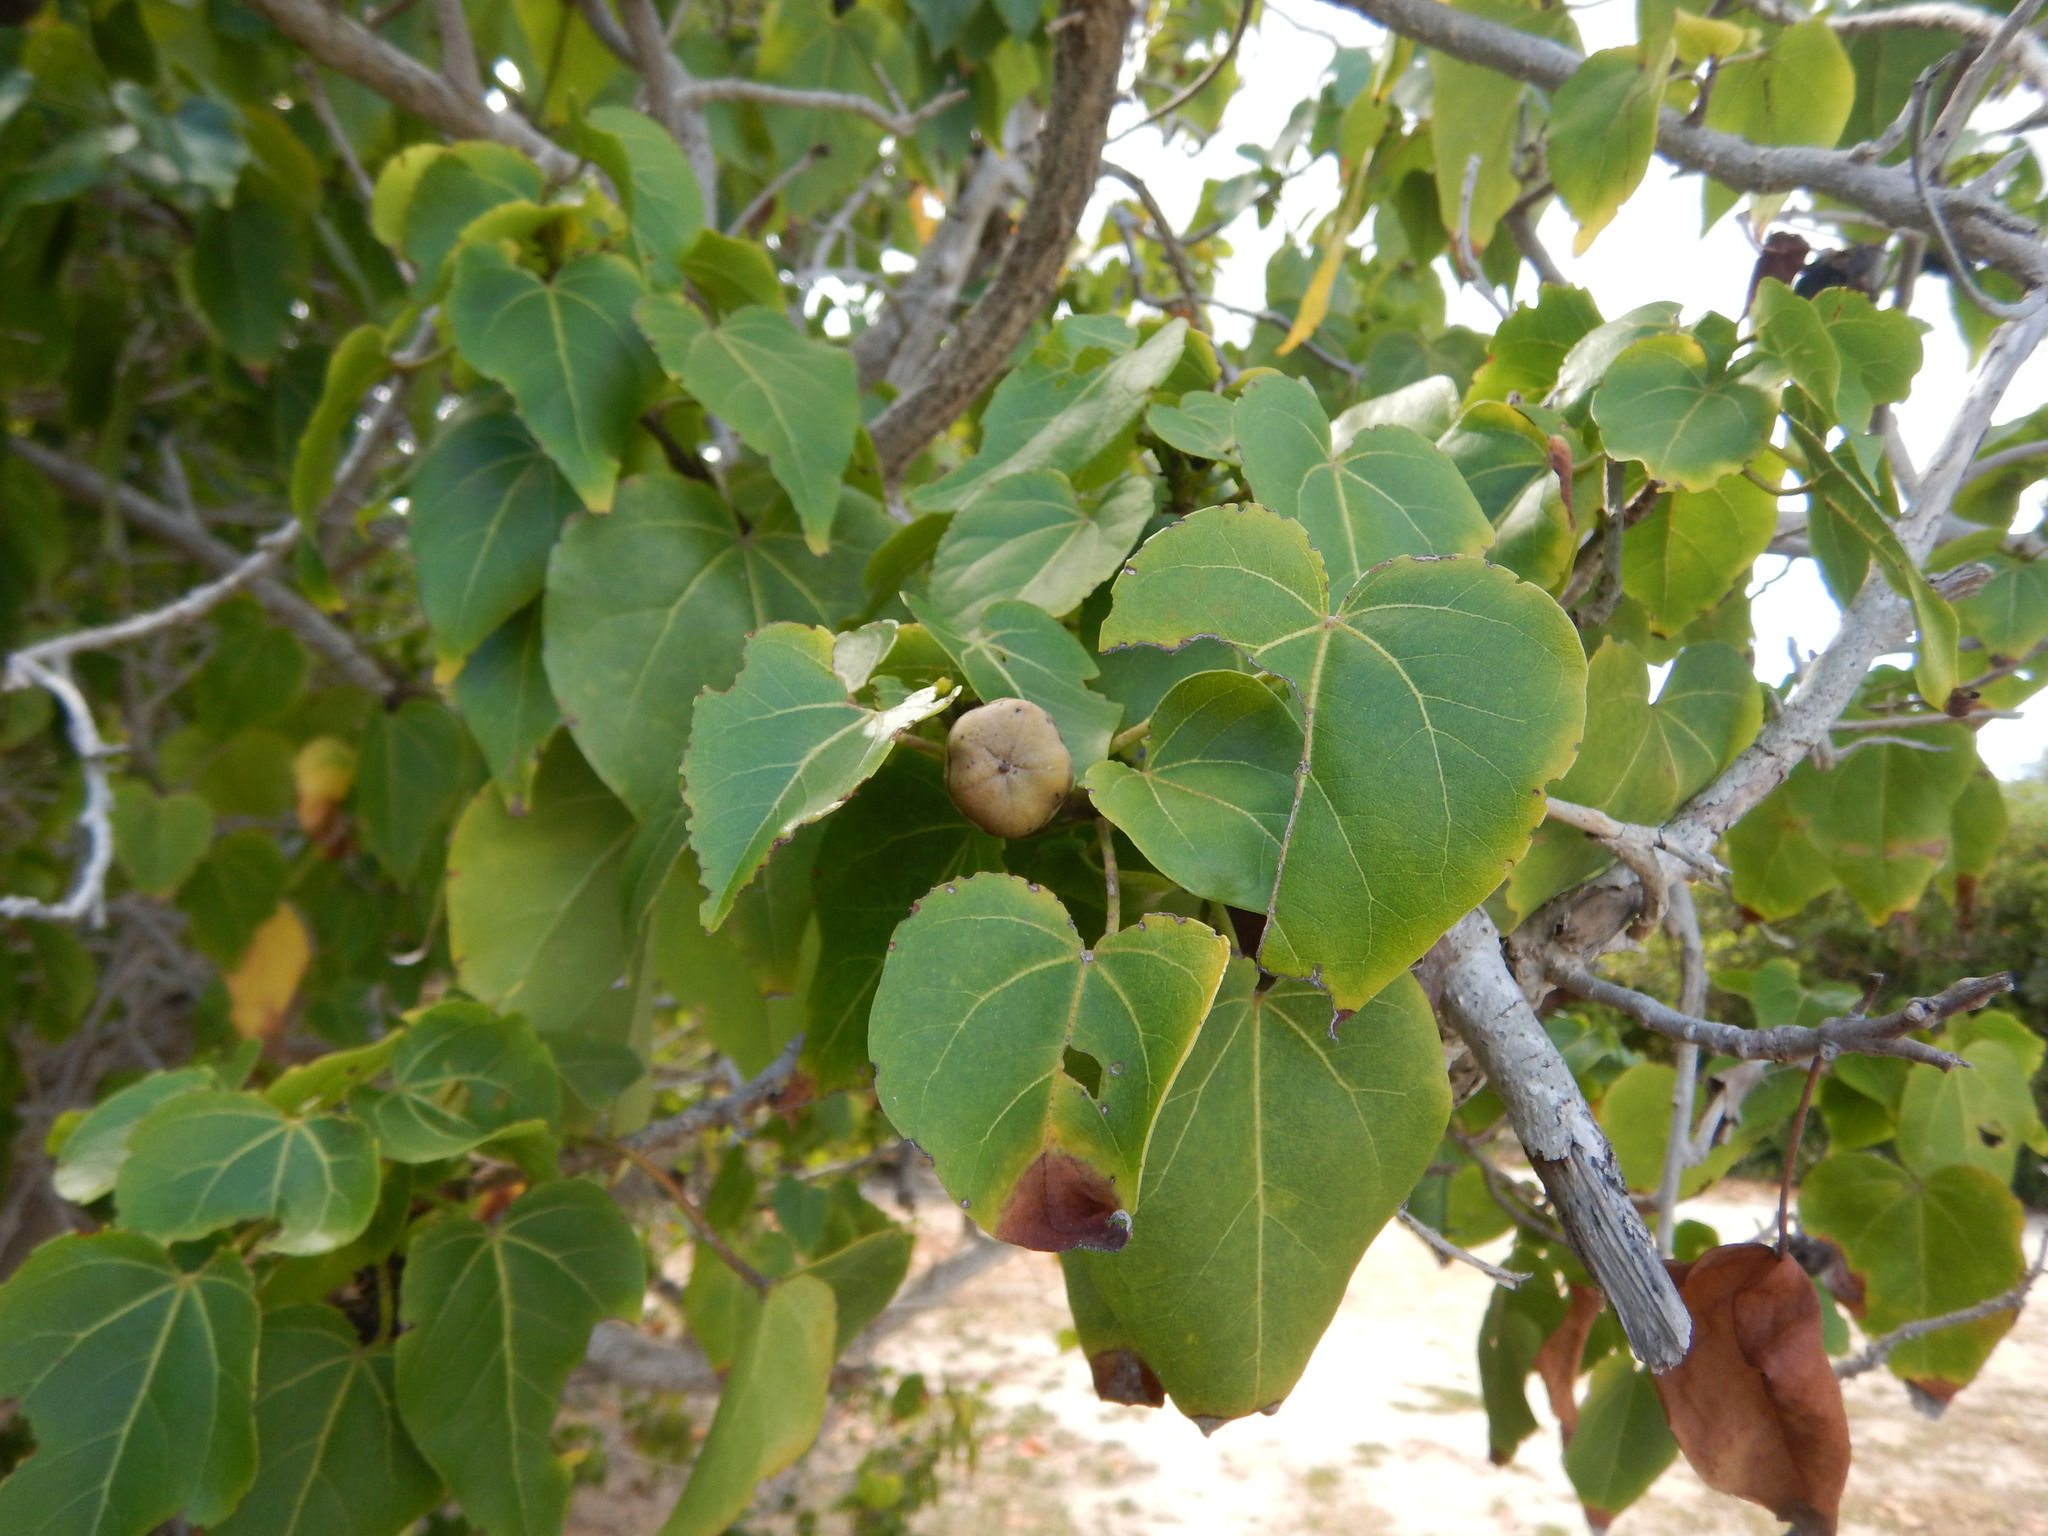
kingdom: Plantae
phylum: Tracheophyta
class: Magnoliopsida
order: Malvales
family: Malvaceae
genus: Thespesia
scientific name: Thespesia populnea
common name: Seaside mahoe
